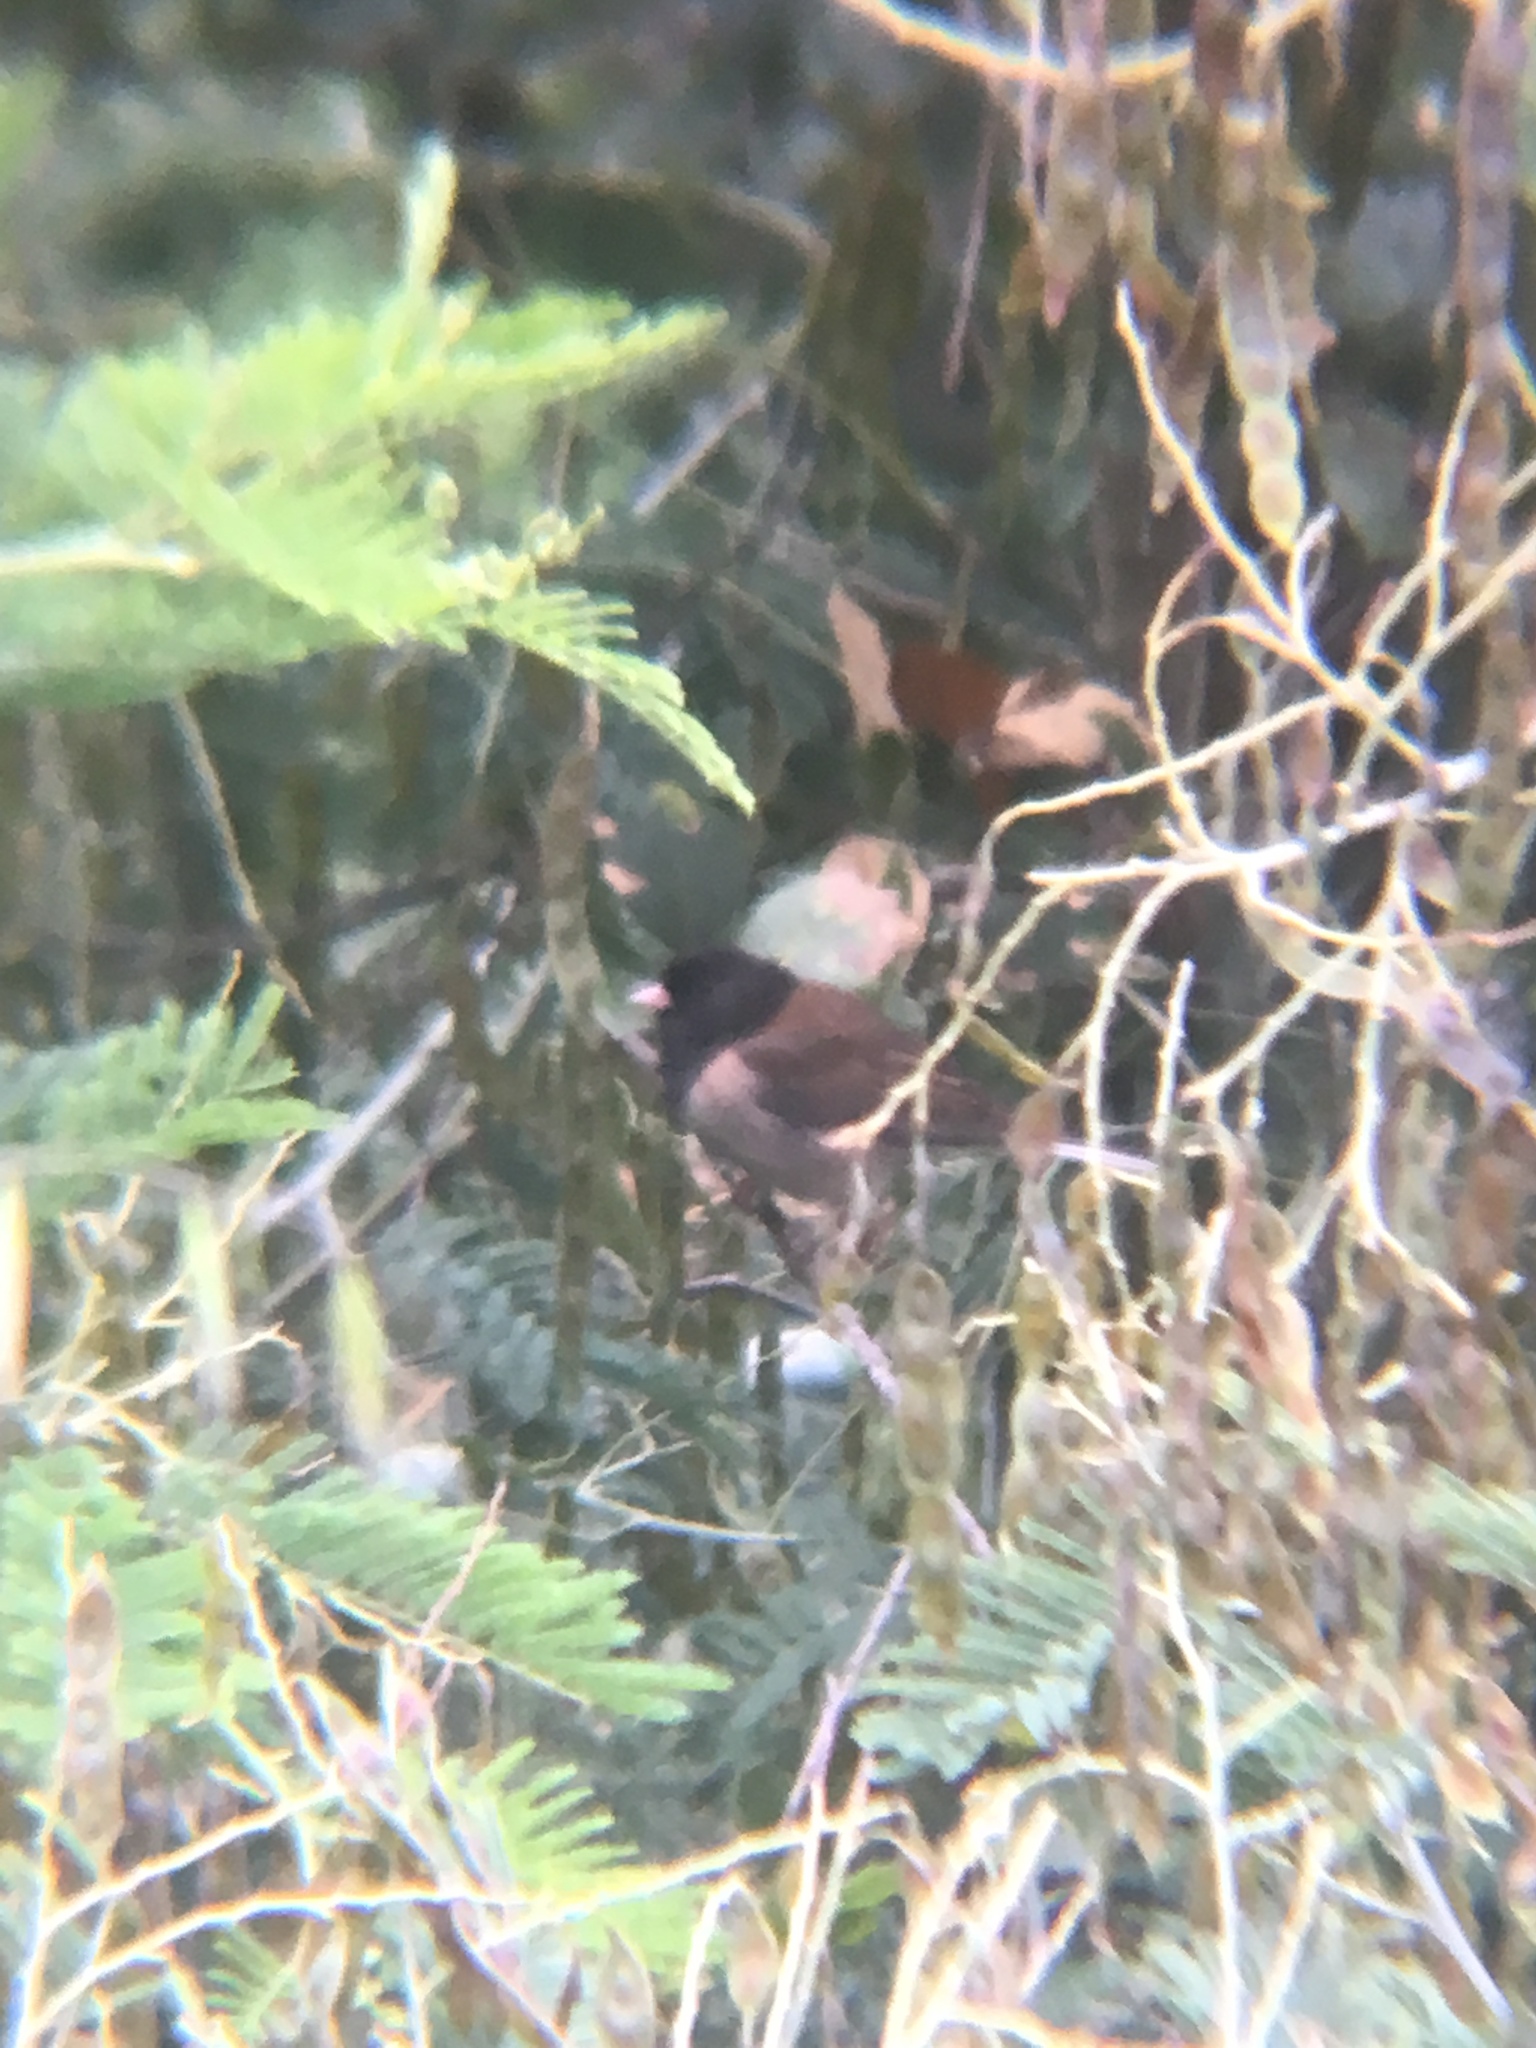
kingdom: Animalia
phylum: Chordata
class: Aves
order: Passeriformes
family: Passerellidae
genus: Junco
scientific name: Junco hyemalis
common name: Dark-eyed junco
